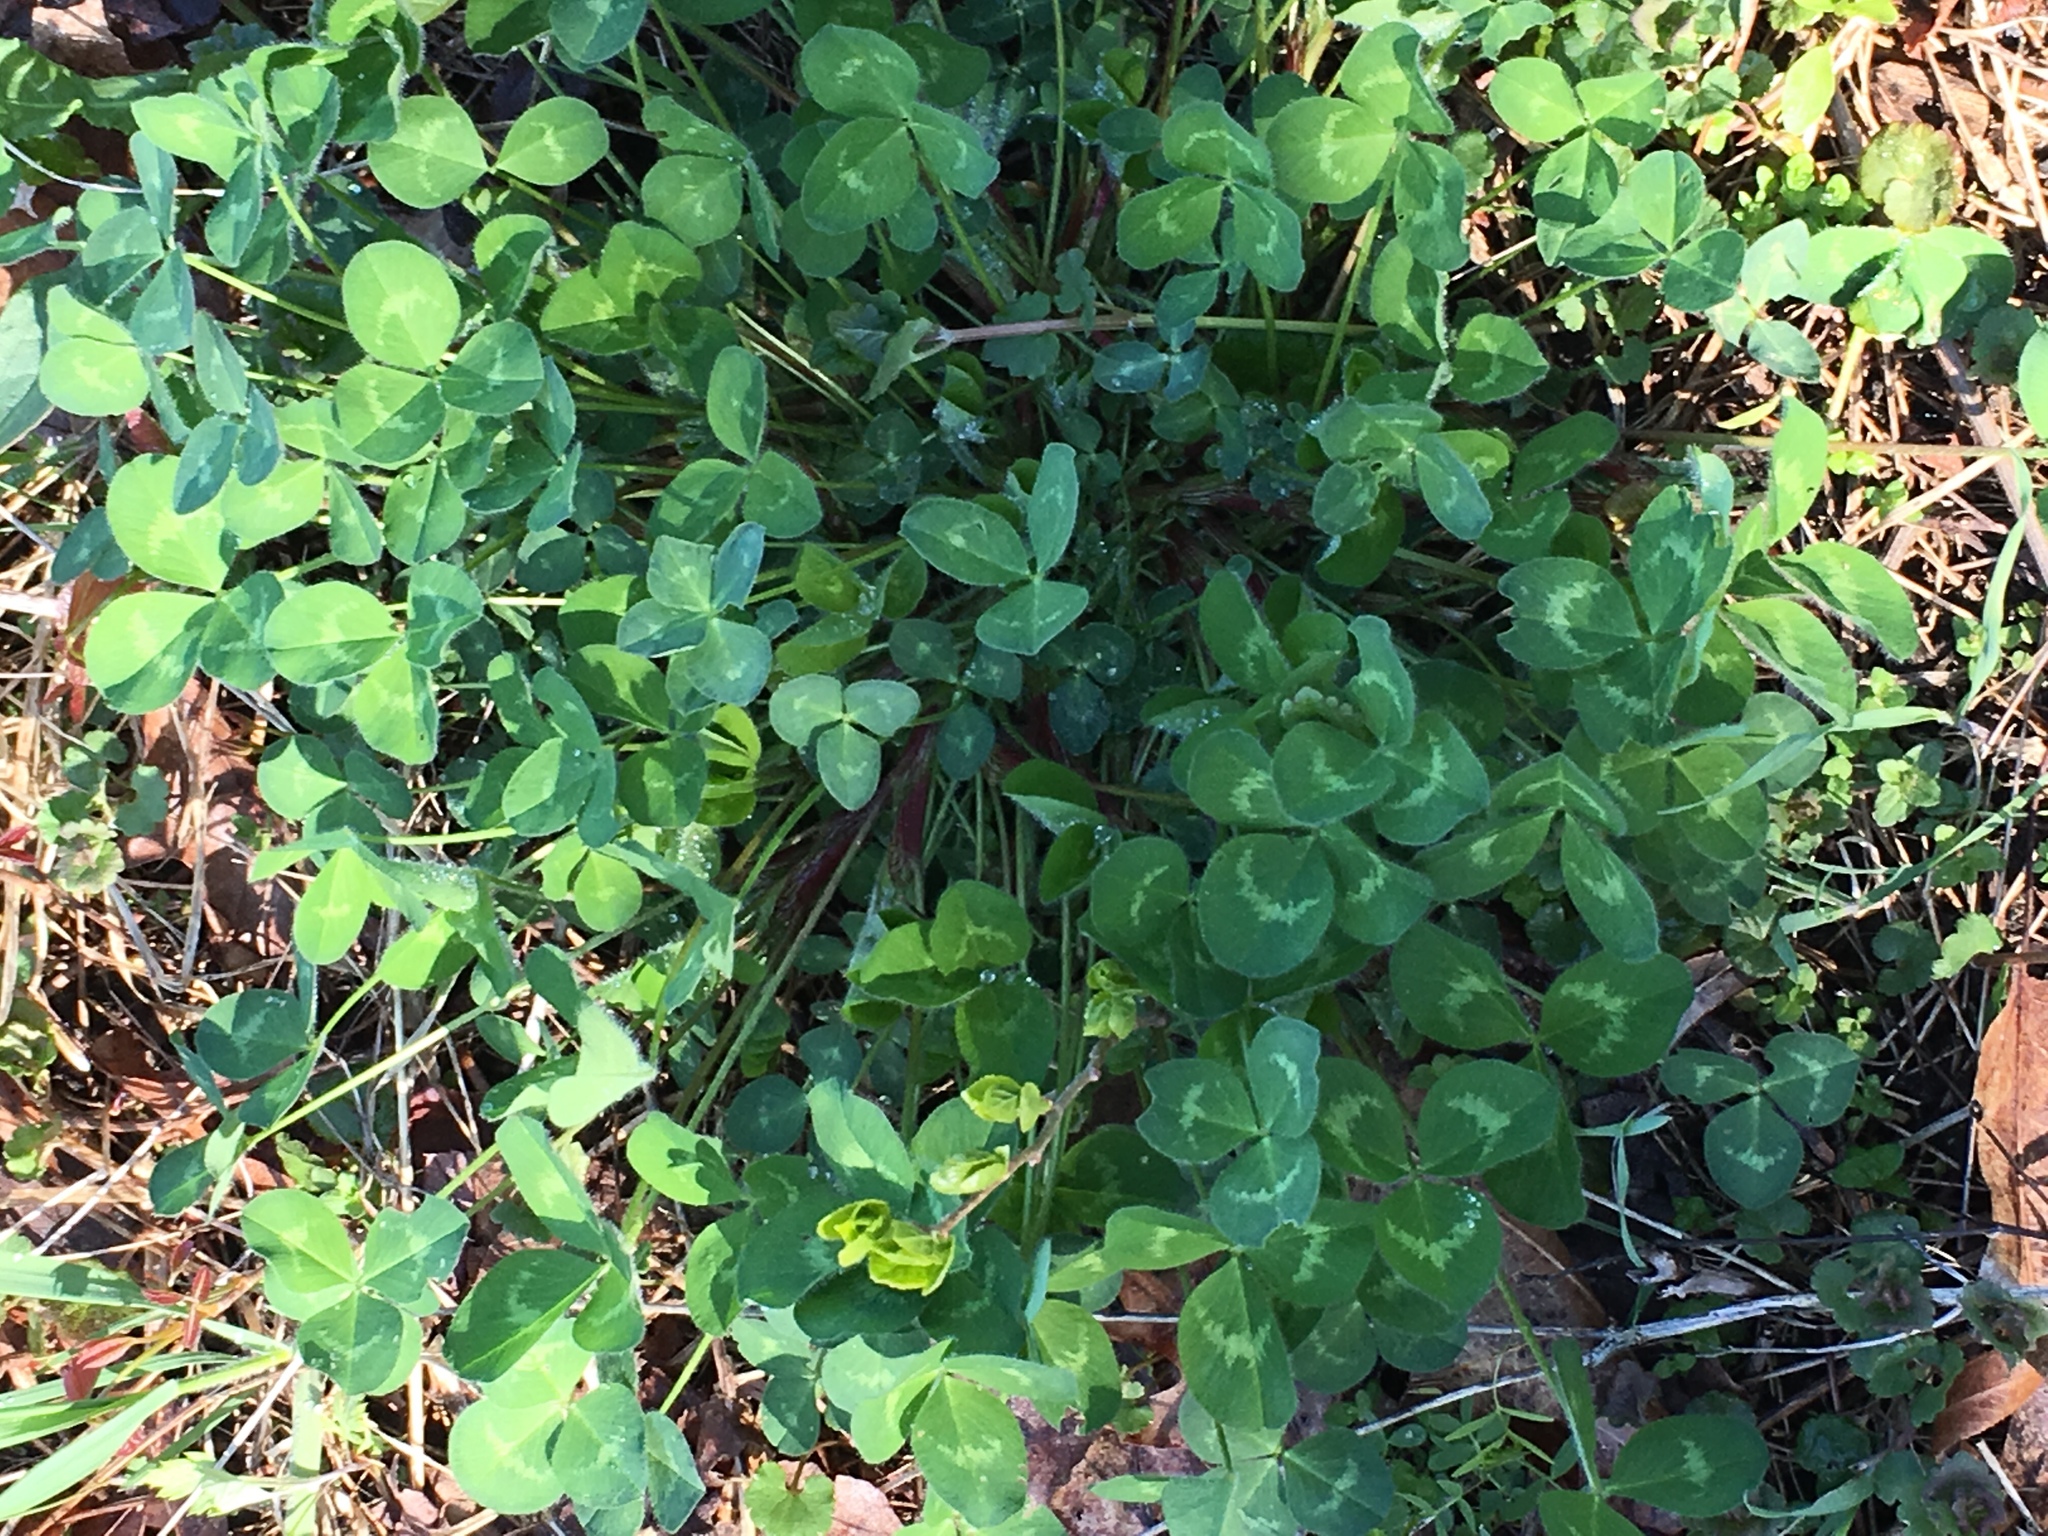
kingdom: Plantae
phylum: Tracheophyta
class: Magnoliopsida
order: Fabales
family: Fabaceae
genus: Trifolium
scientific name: Trifolium pratense
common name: Red clover
